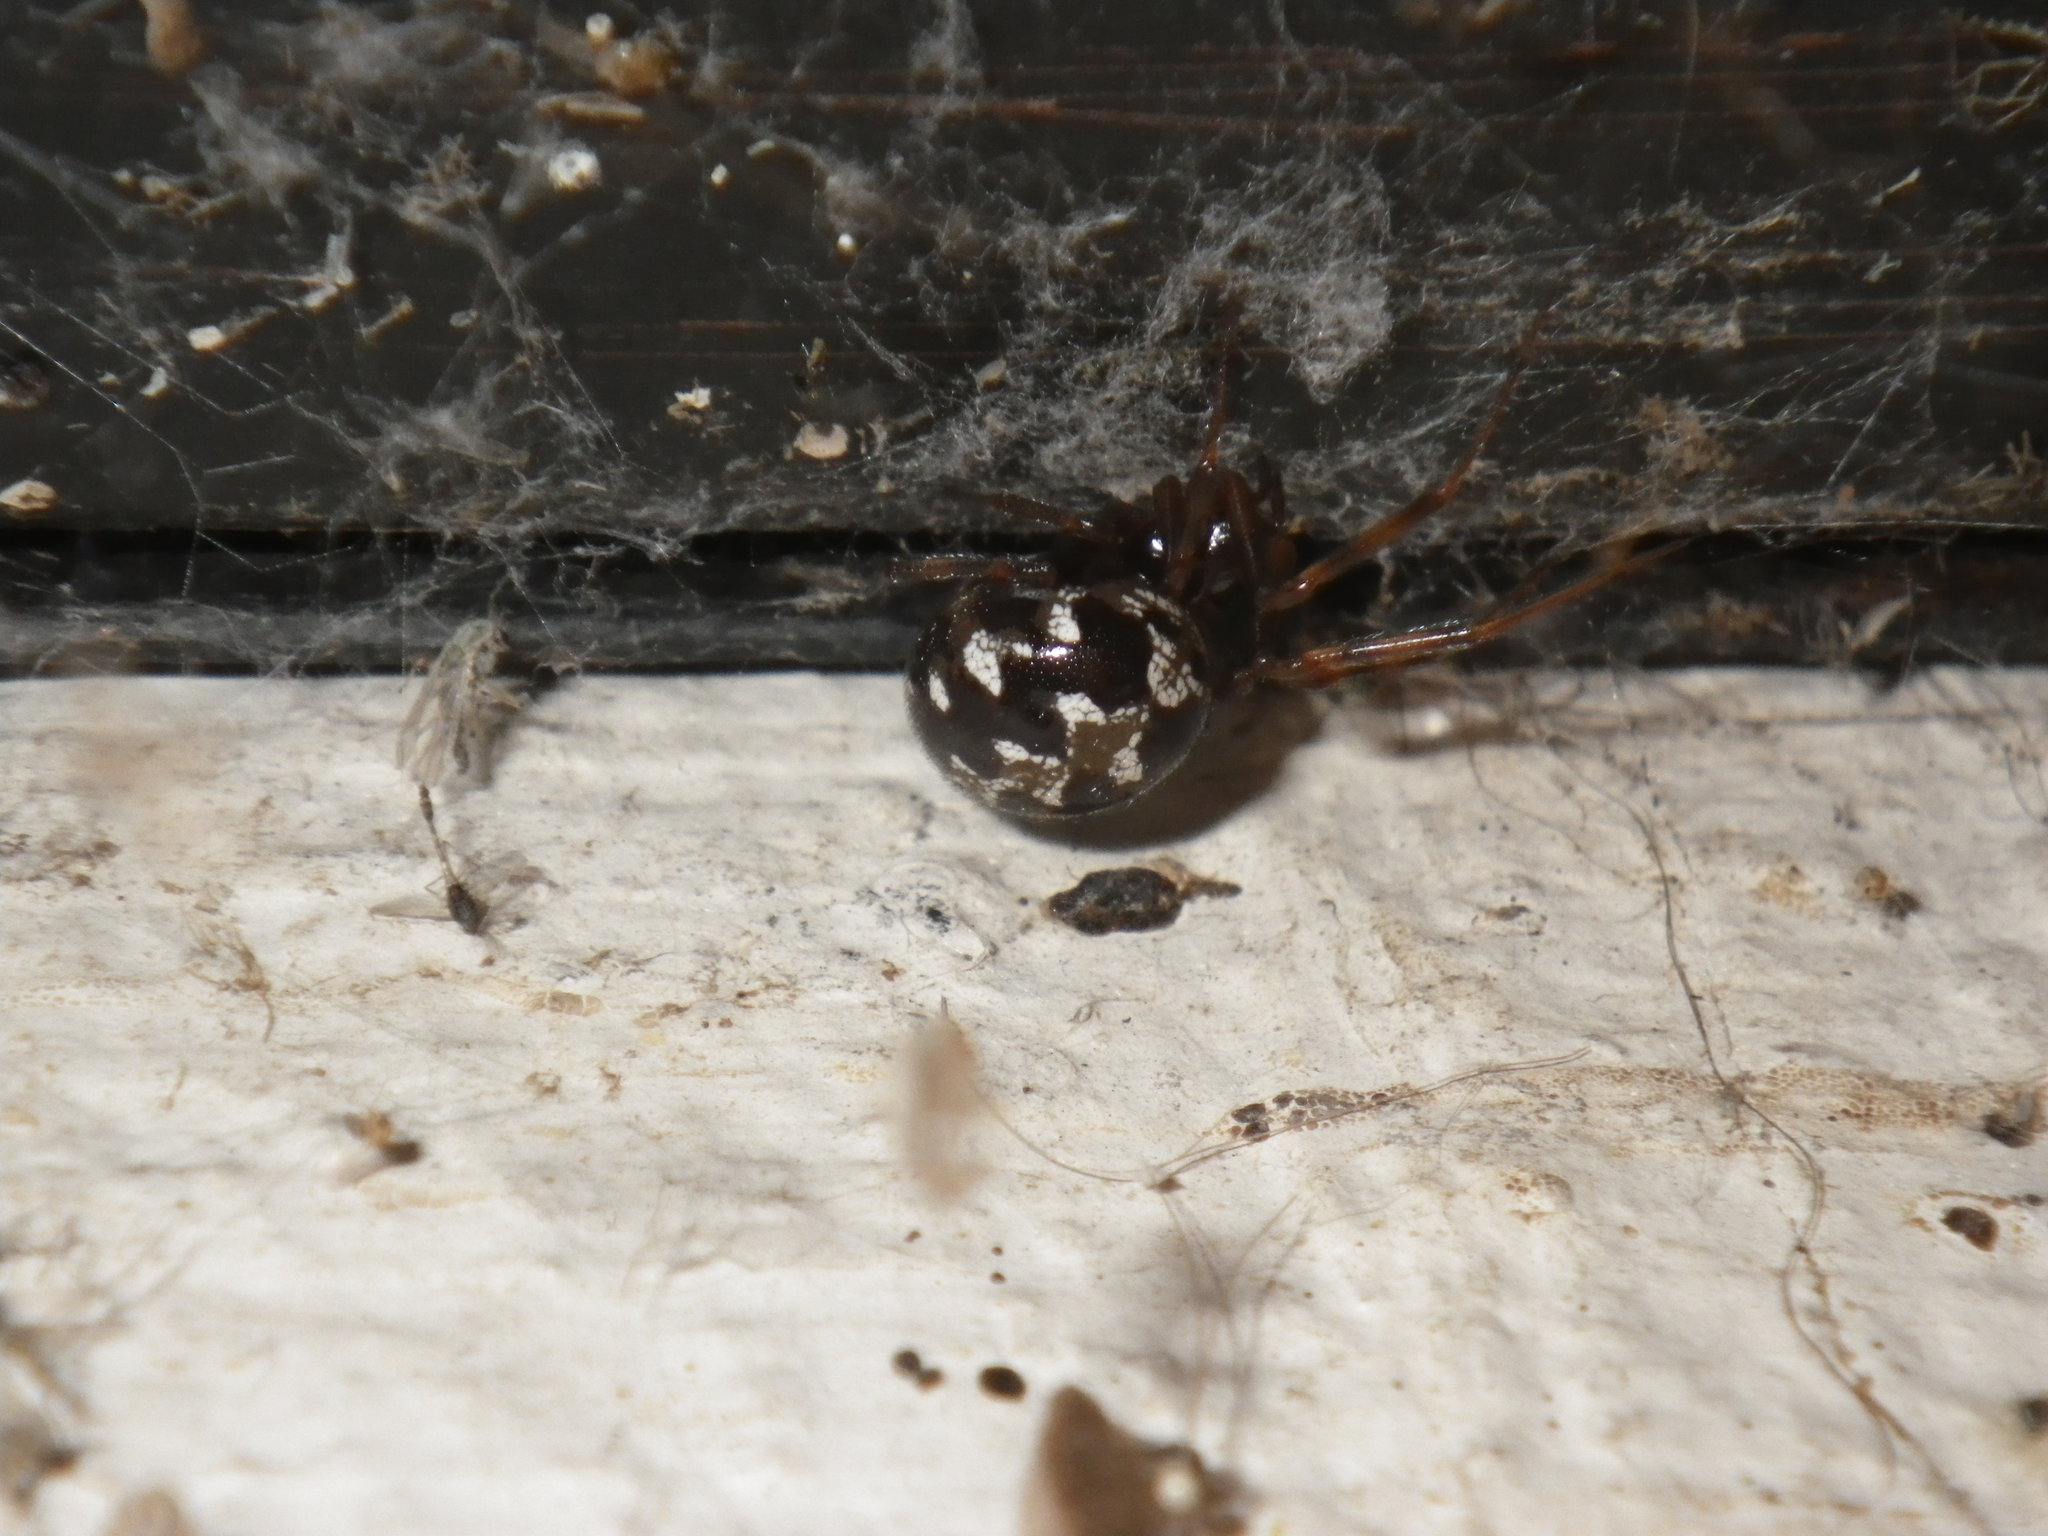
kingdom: Animalia
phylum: Arthropoda
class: Arachnida
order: Araneae
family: Theridiidae
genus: Steatoda
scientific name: Steatoda triangulosa
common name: Triangulate bud spider
